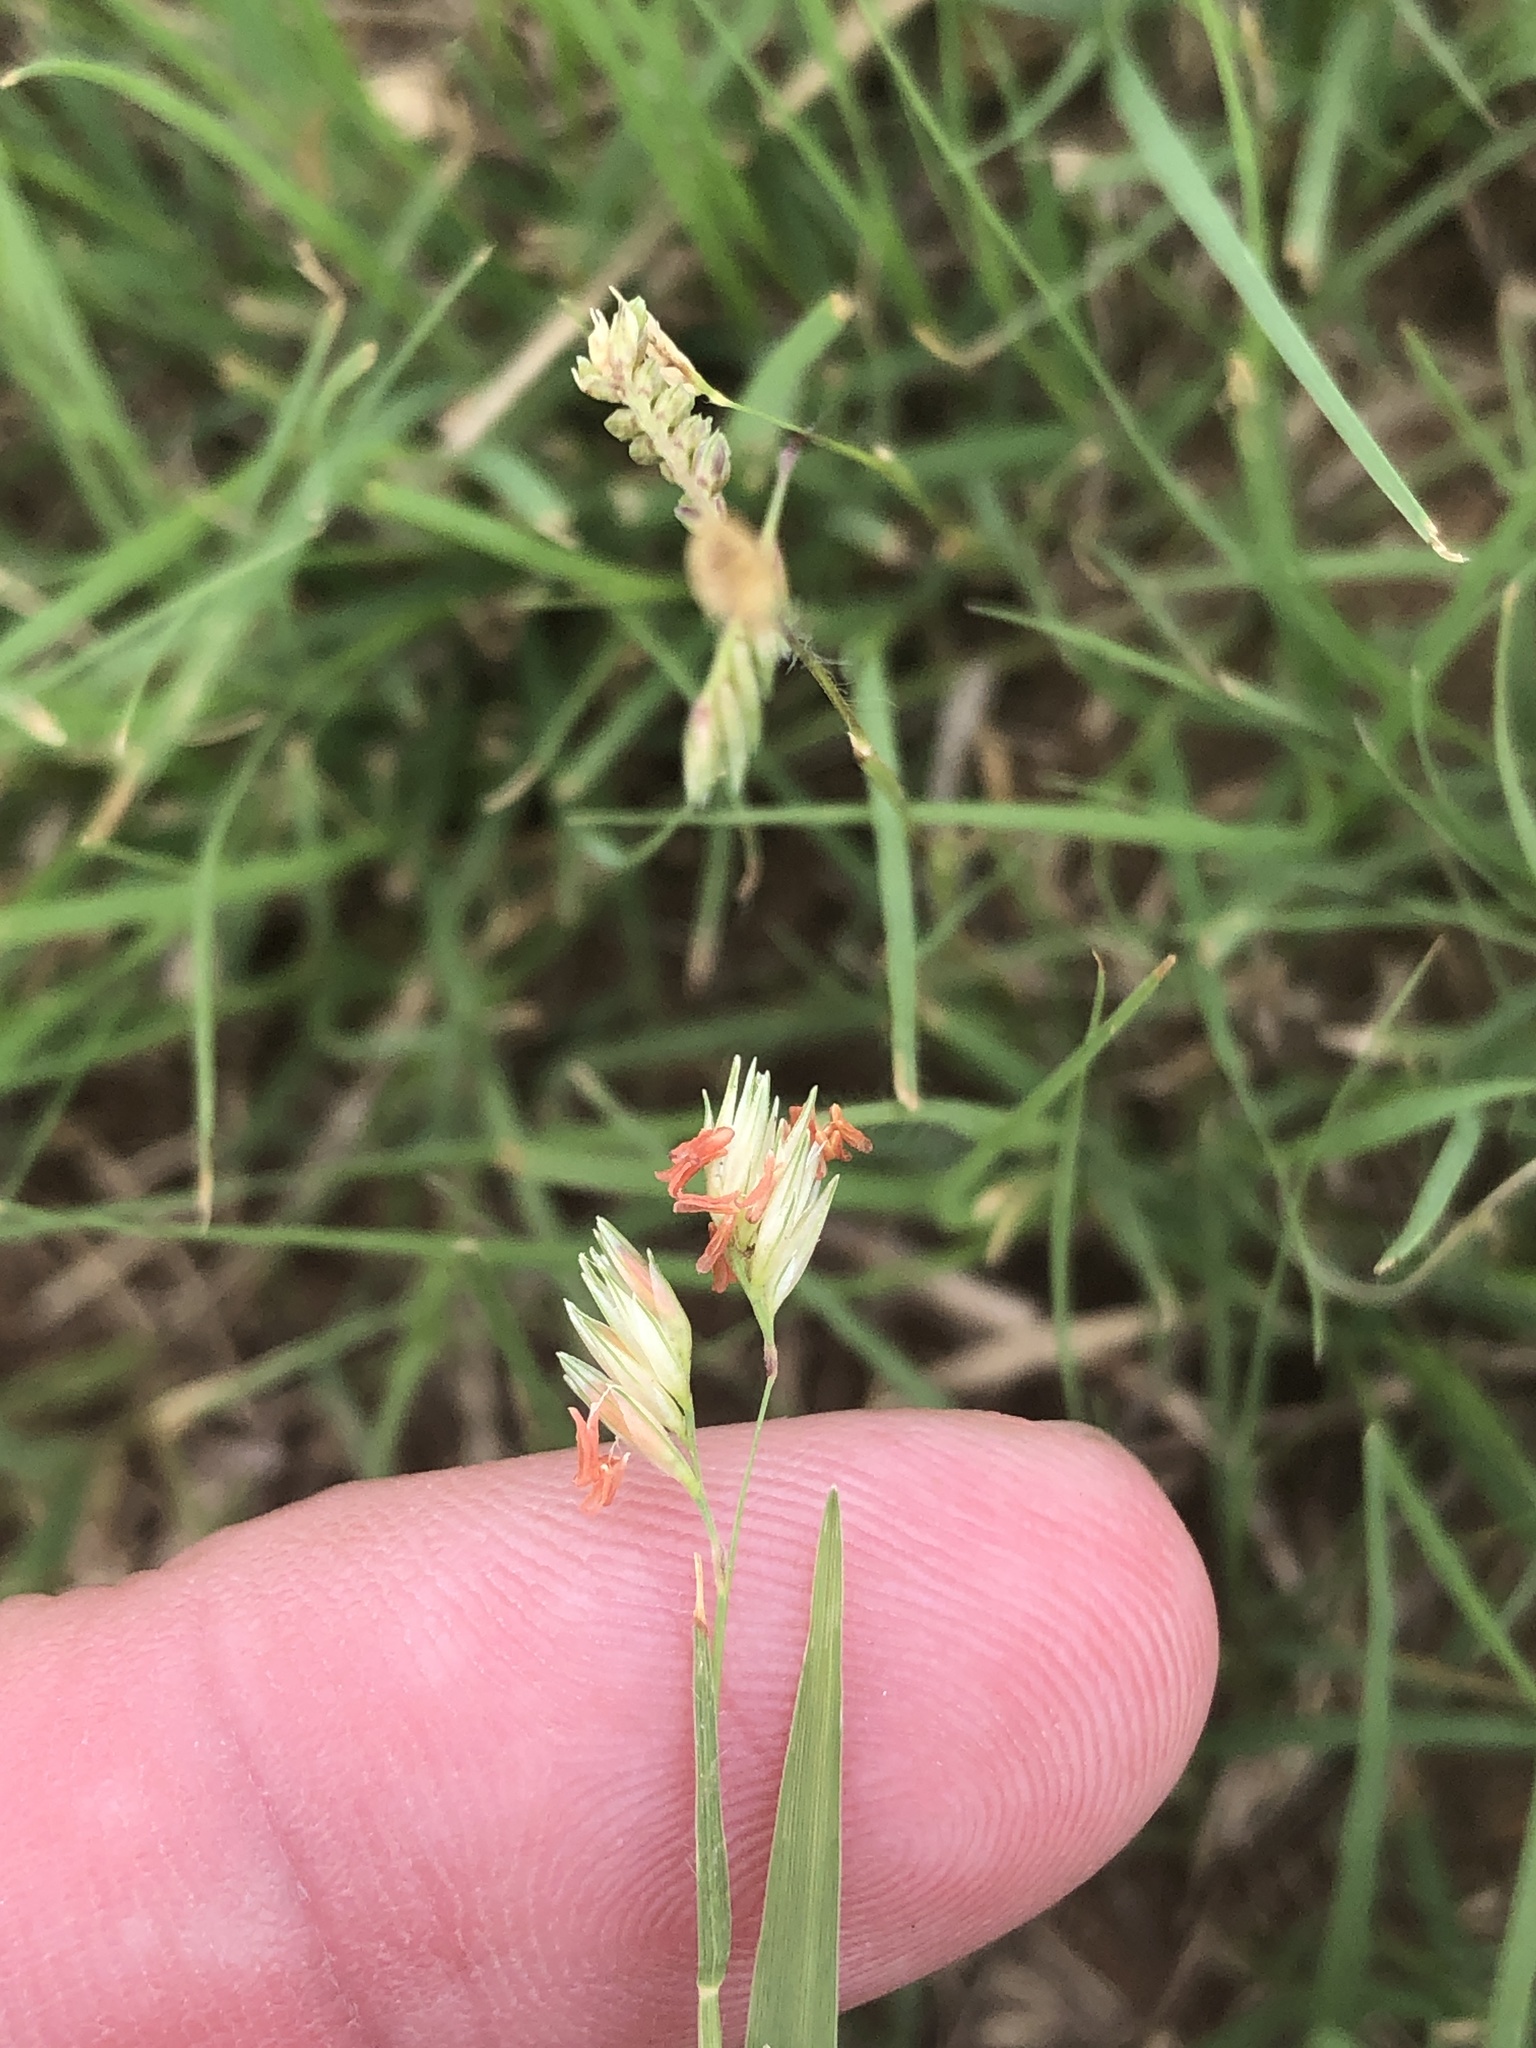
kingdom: Plantae
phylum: Tracheophyta
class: Liliopsida
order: Poales
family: Poaceae
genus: Bouteloua
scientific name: Bouteloua dactyloides
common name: Buffalo grass
